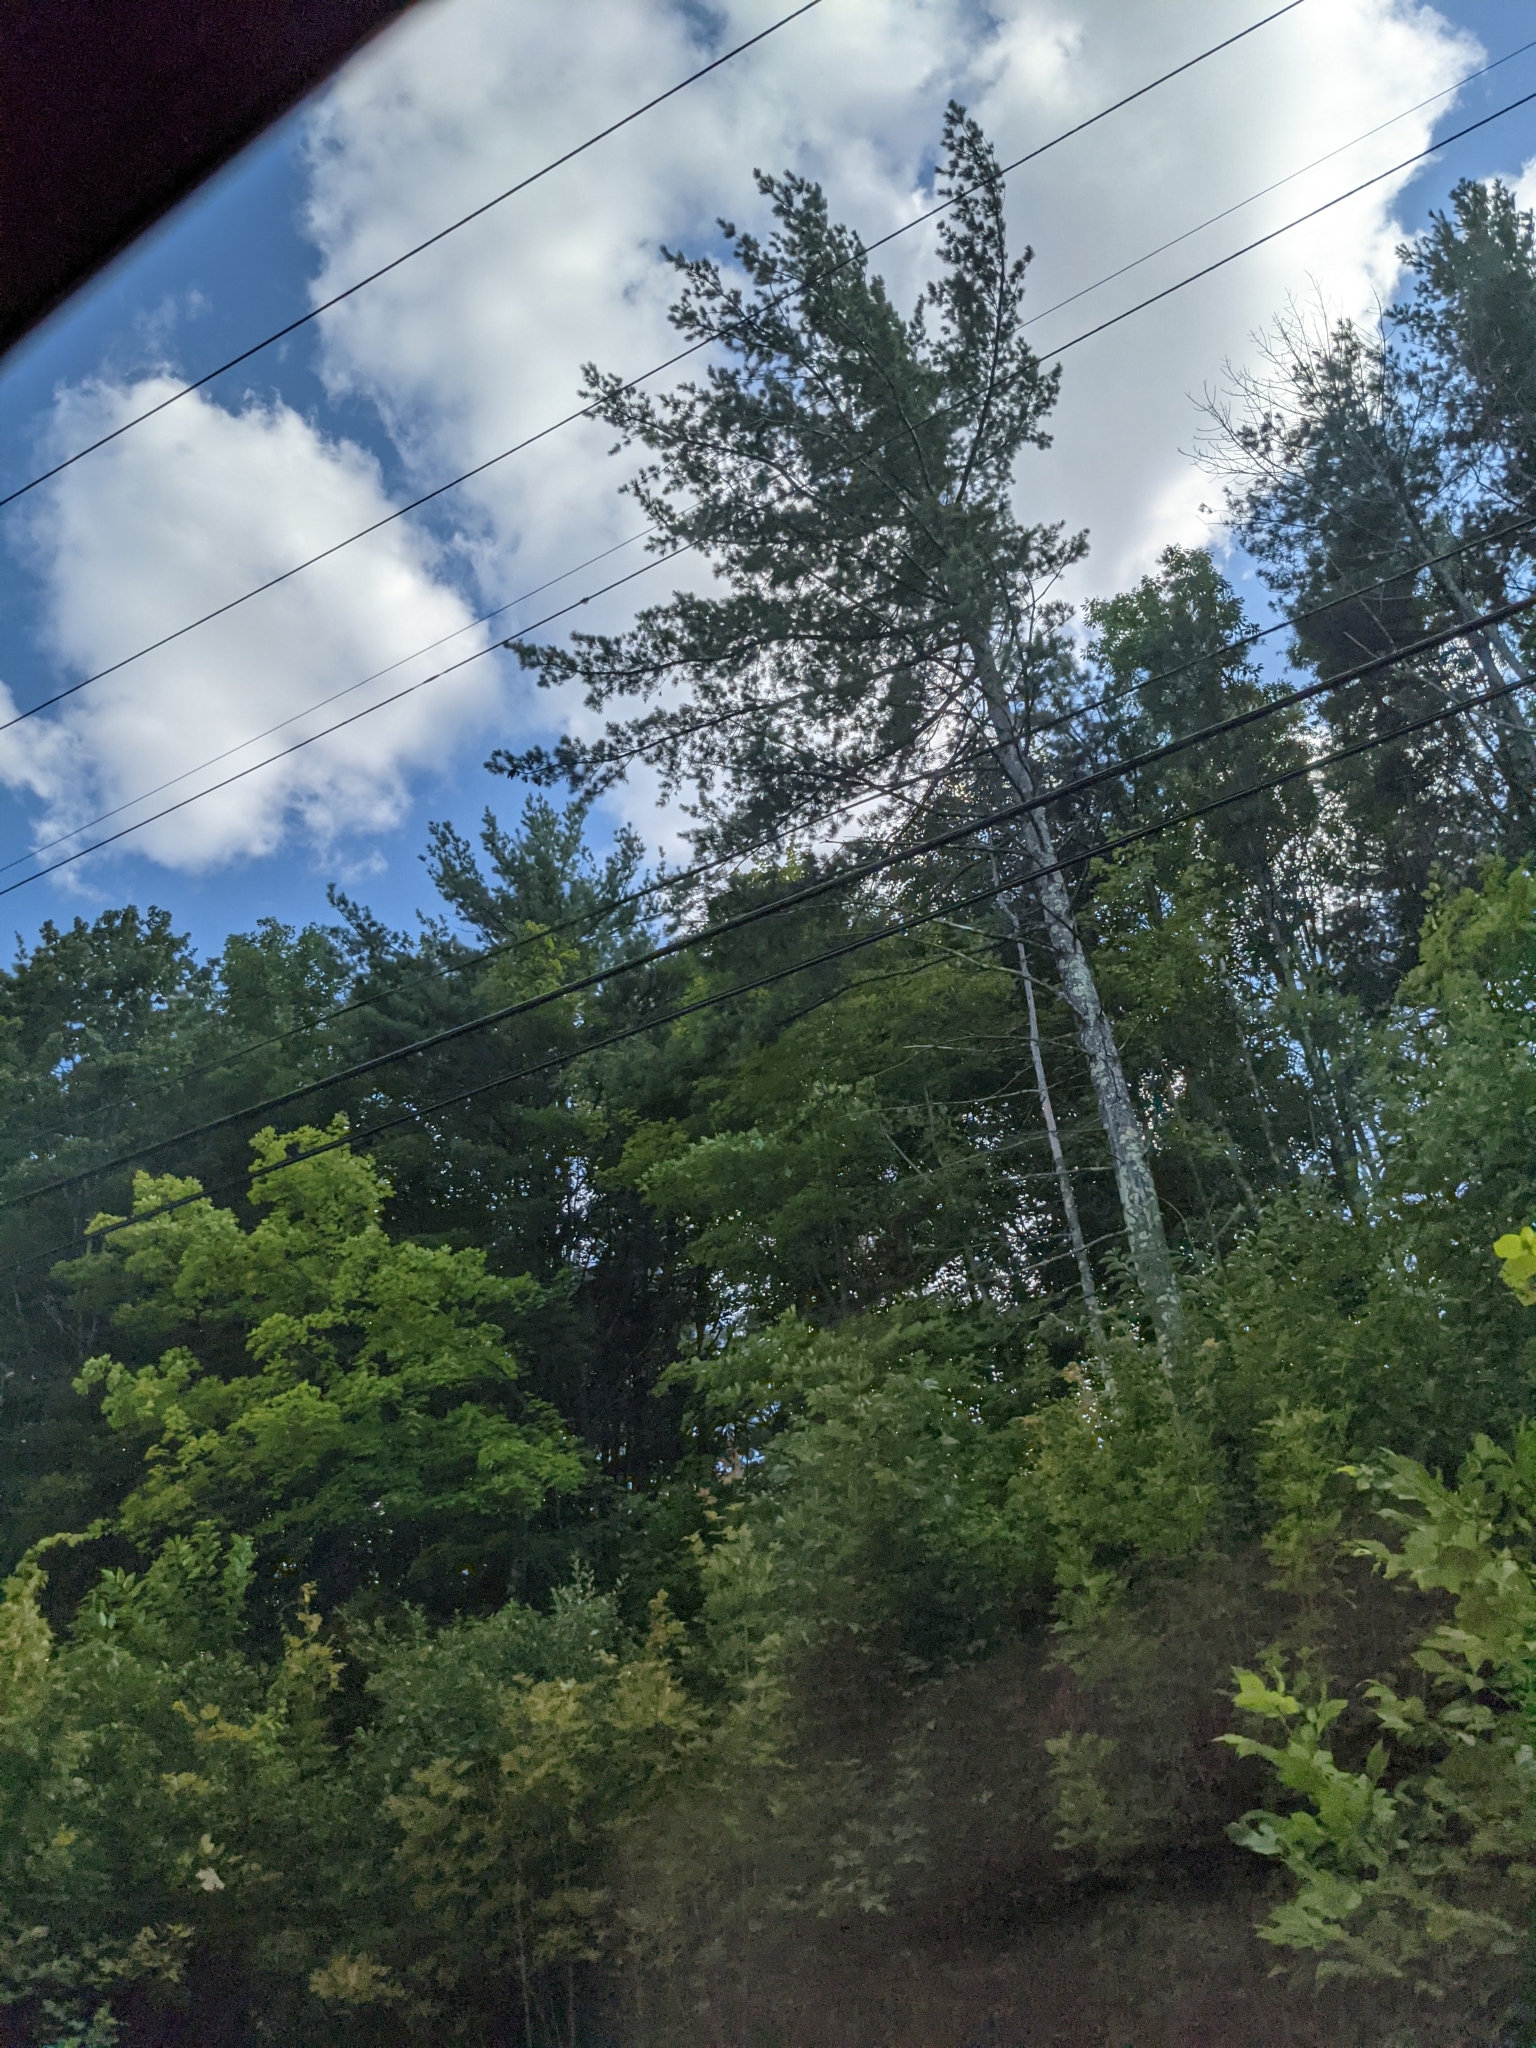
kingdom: Plantae
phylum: Tracheophyta
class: Pinopsida
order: Pinales
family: Pinaceae
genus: Pinus
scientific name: Pinus strobus
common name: Weymouth pine
